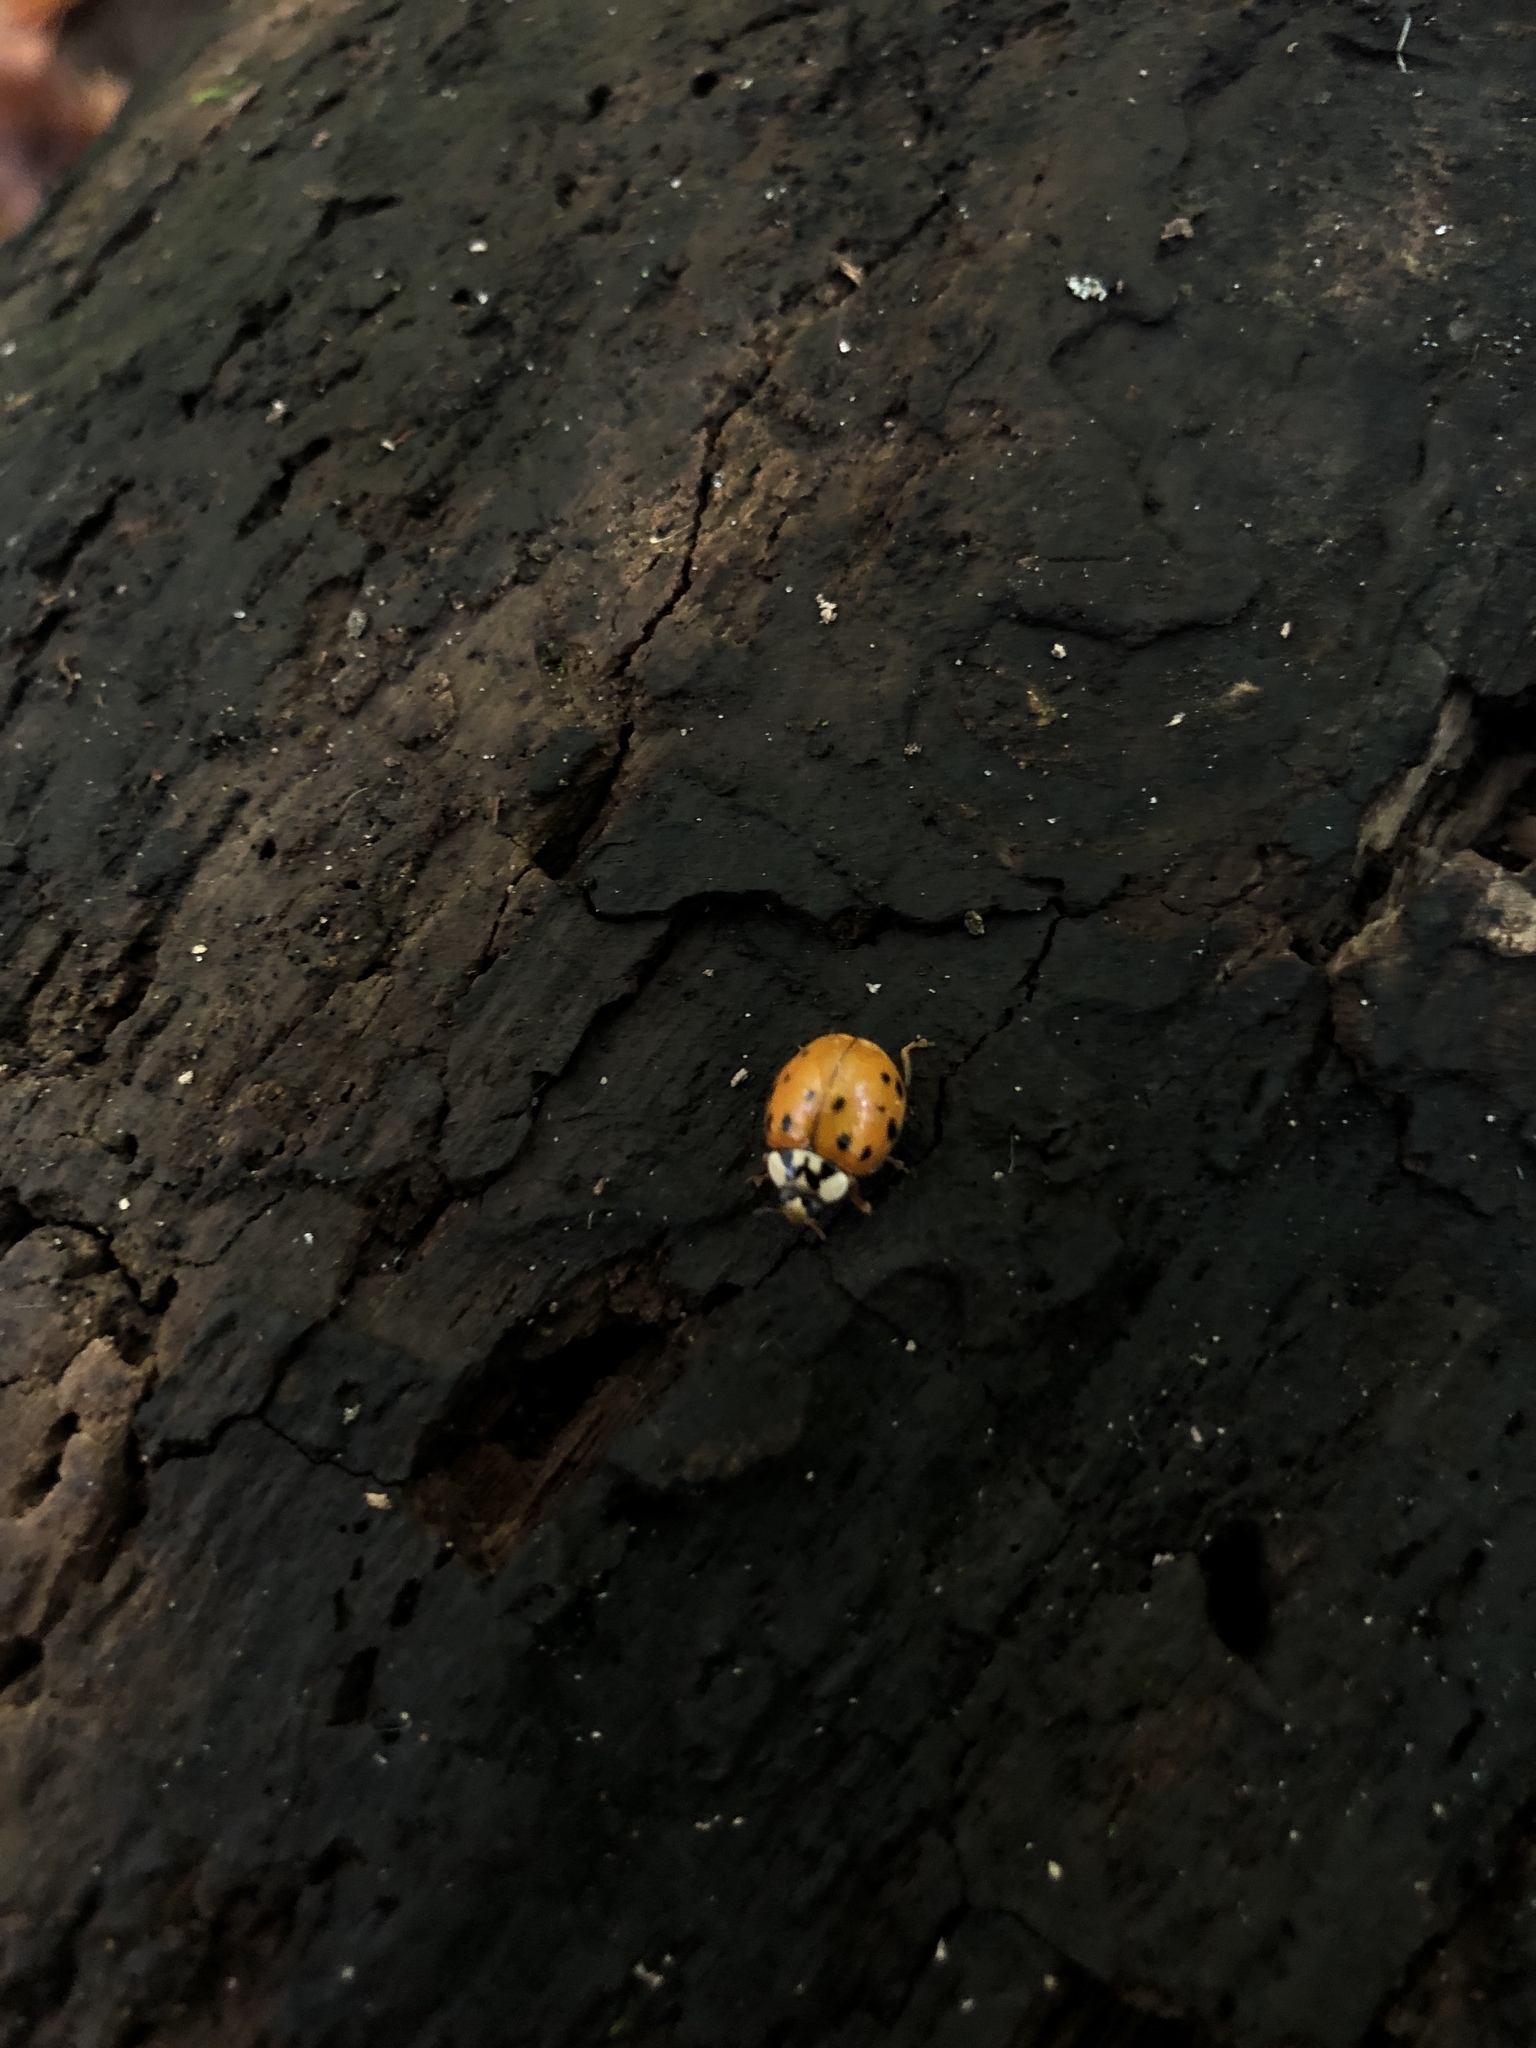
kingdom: Animalia
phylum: Arthropoda
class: Insecta
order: Coleoptera
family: Coccinellidae
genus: Harmonia
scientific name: Harmonia axyridis
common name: Harlequin ladybird
